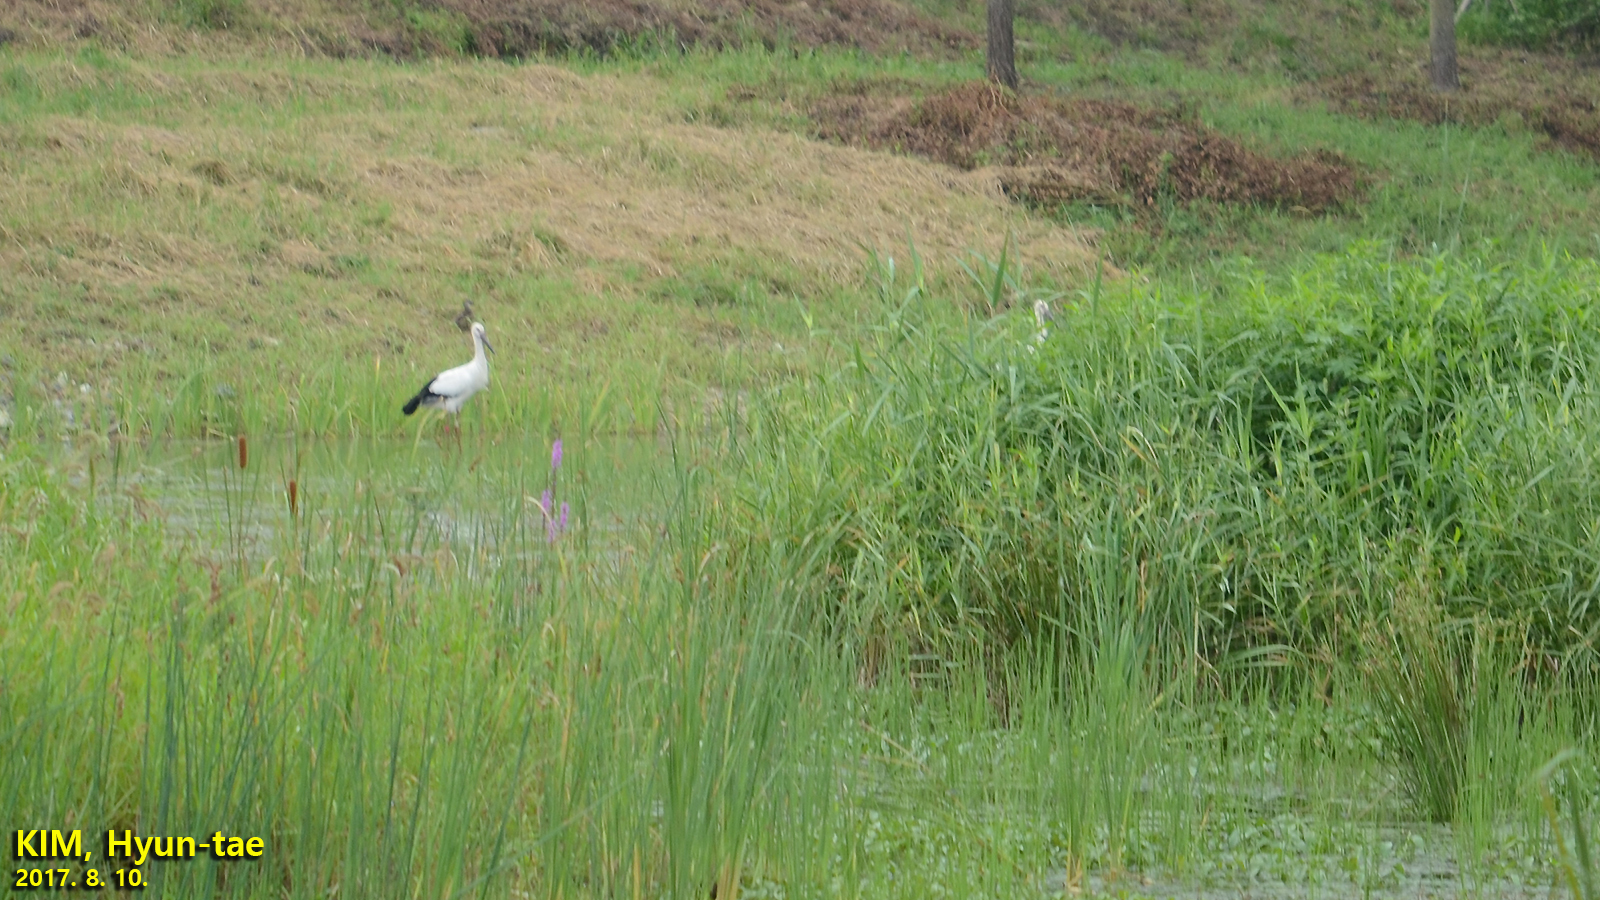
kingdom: Animalia
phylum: Chordata
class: Aves
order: Ciconiiformes
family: Ciconiidae
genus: Ciconia
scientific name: Ciconia boyciana
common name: Oriental stork
